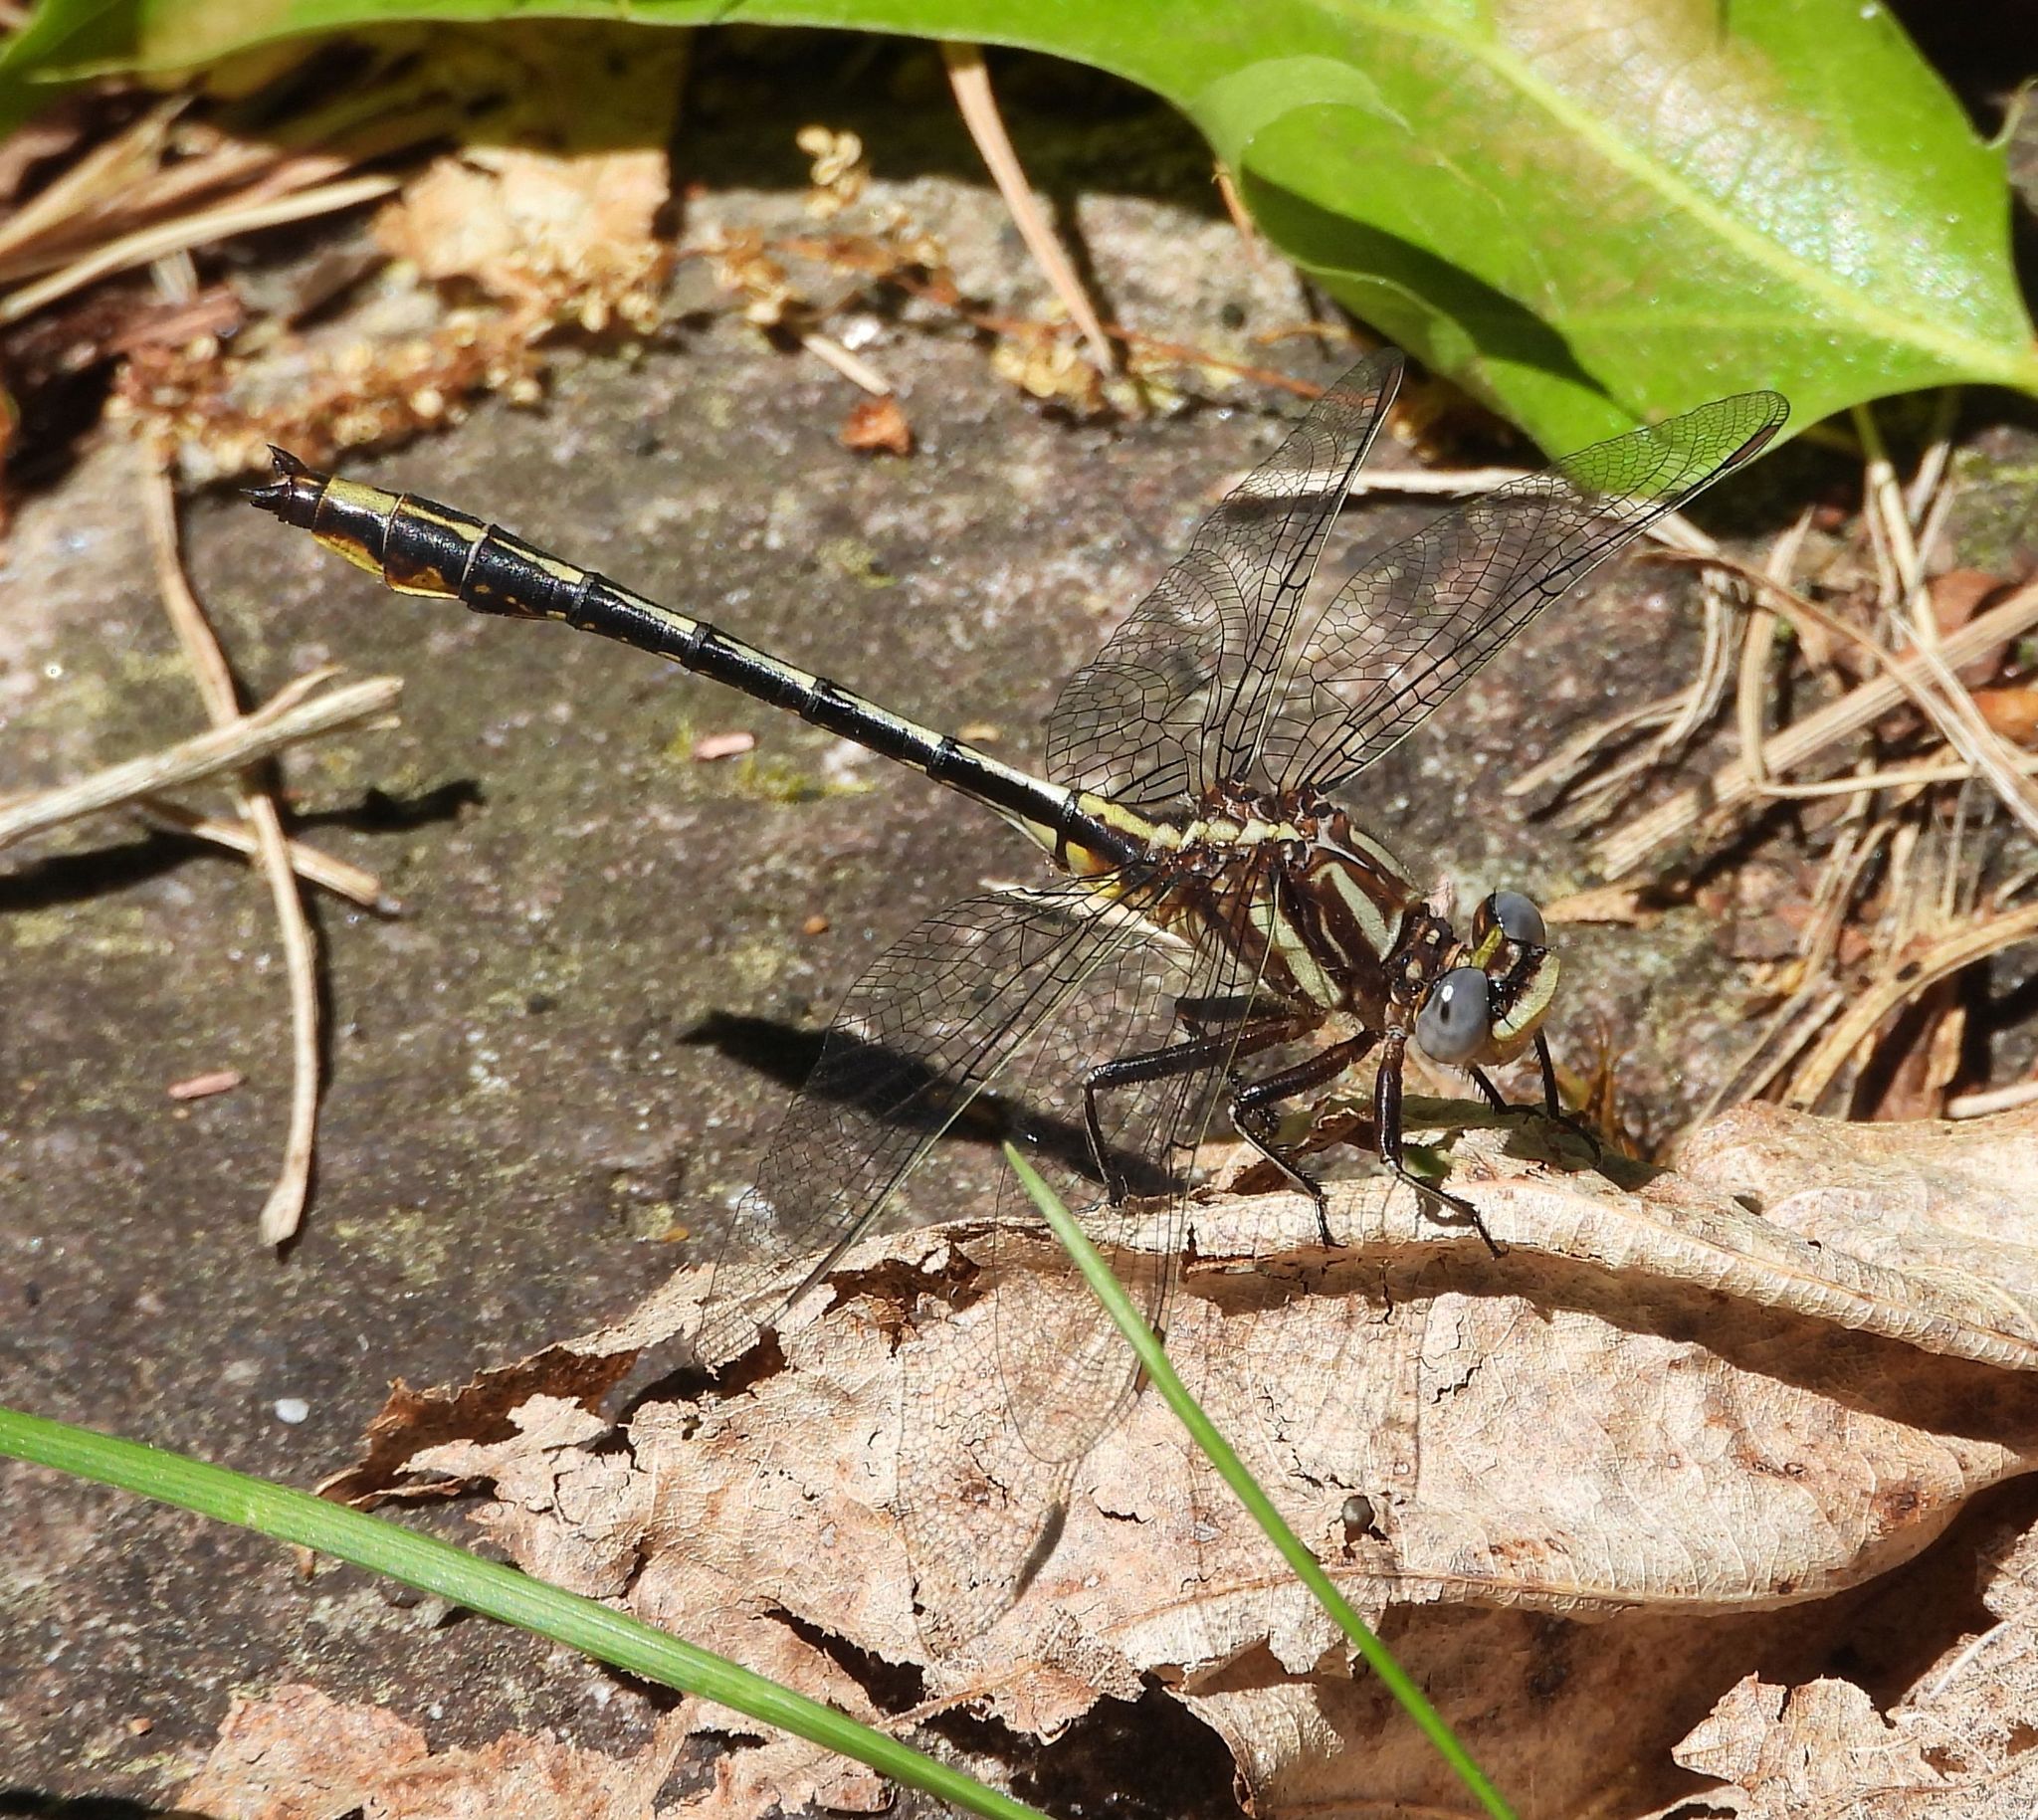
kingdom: Animalia
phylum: Arthropoda
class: Insecta
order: Odonata
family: Gomphidae
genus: Phanogomphus
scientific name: Phanogomphus exilis
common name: Lancet clubtail
